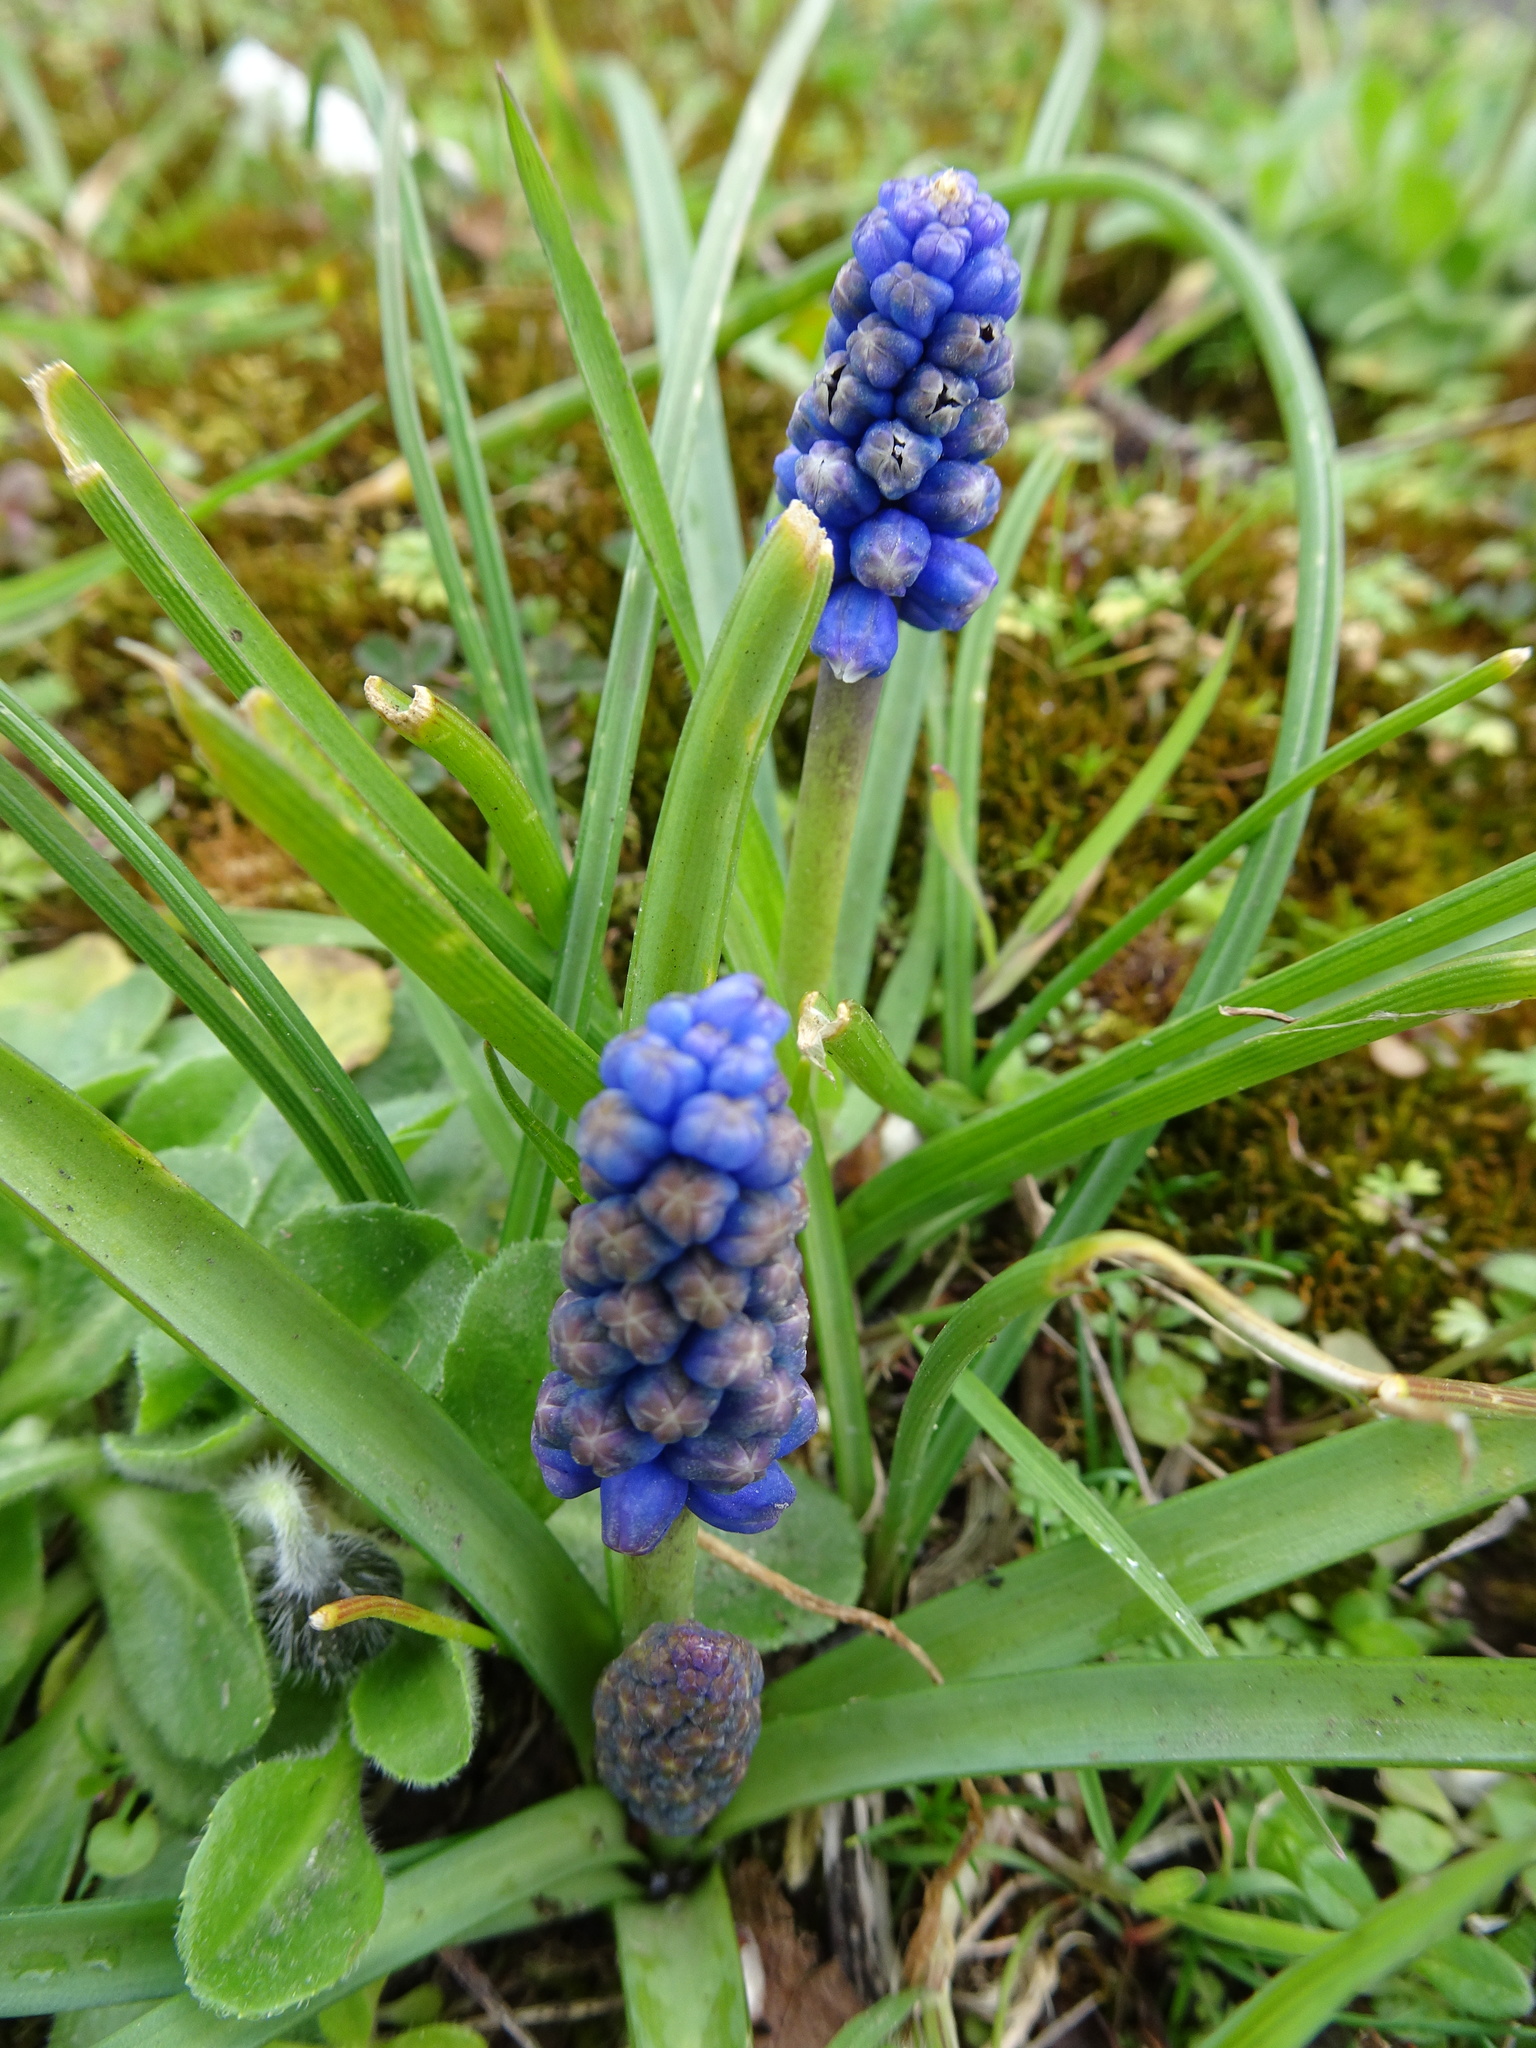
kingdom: Plantae
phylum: Tracheophyta
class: Liliopsida
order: Asparagales
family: Asparagaceae
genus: Muscari
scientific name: Muscari armeniacum
